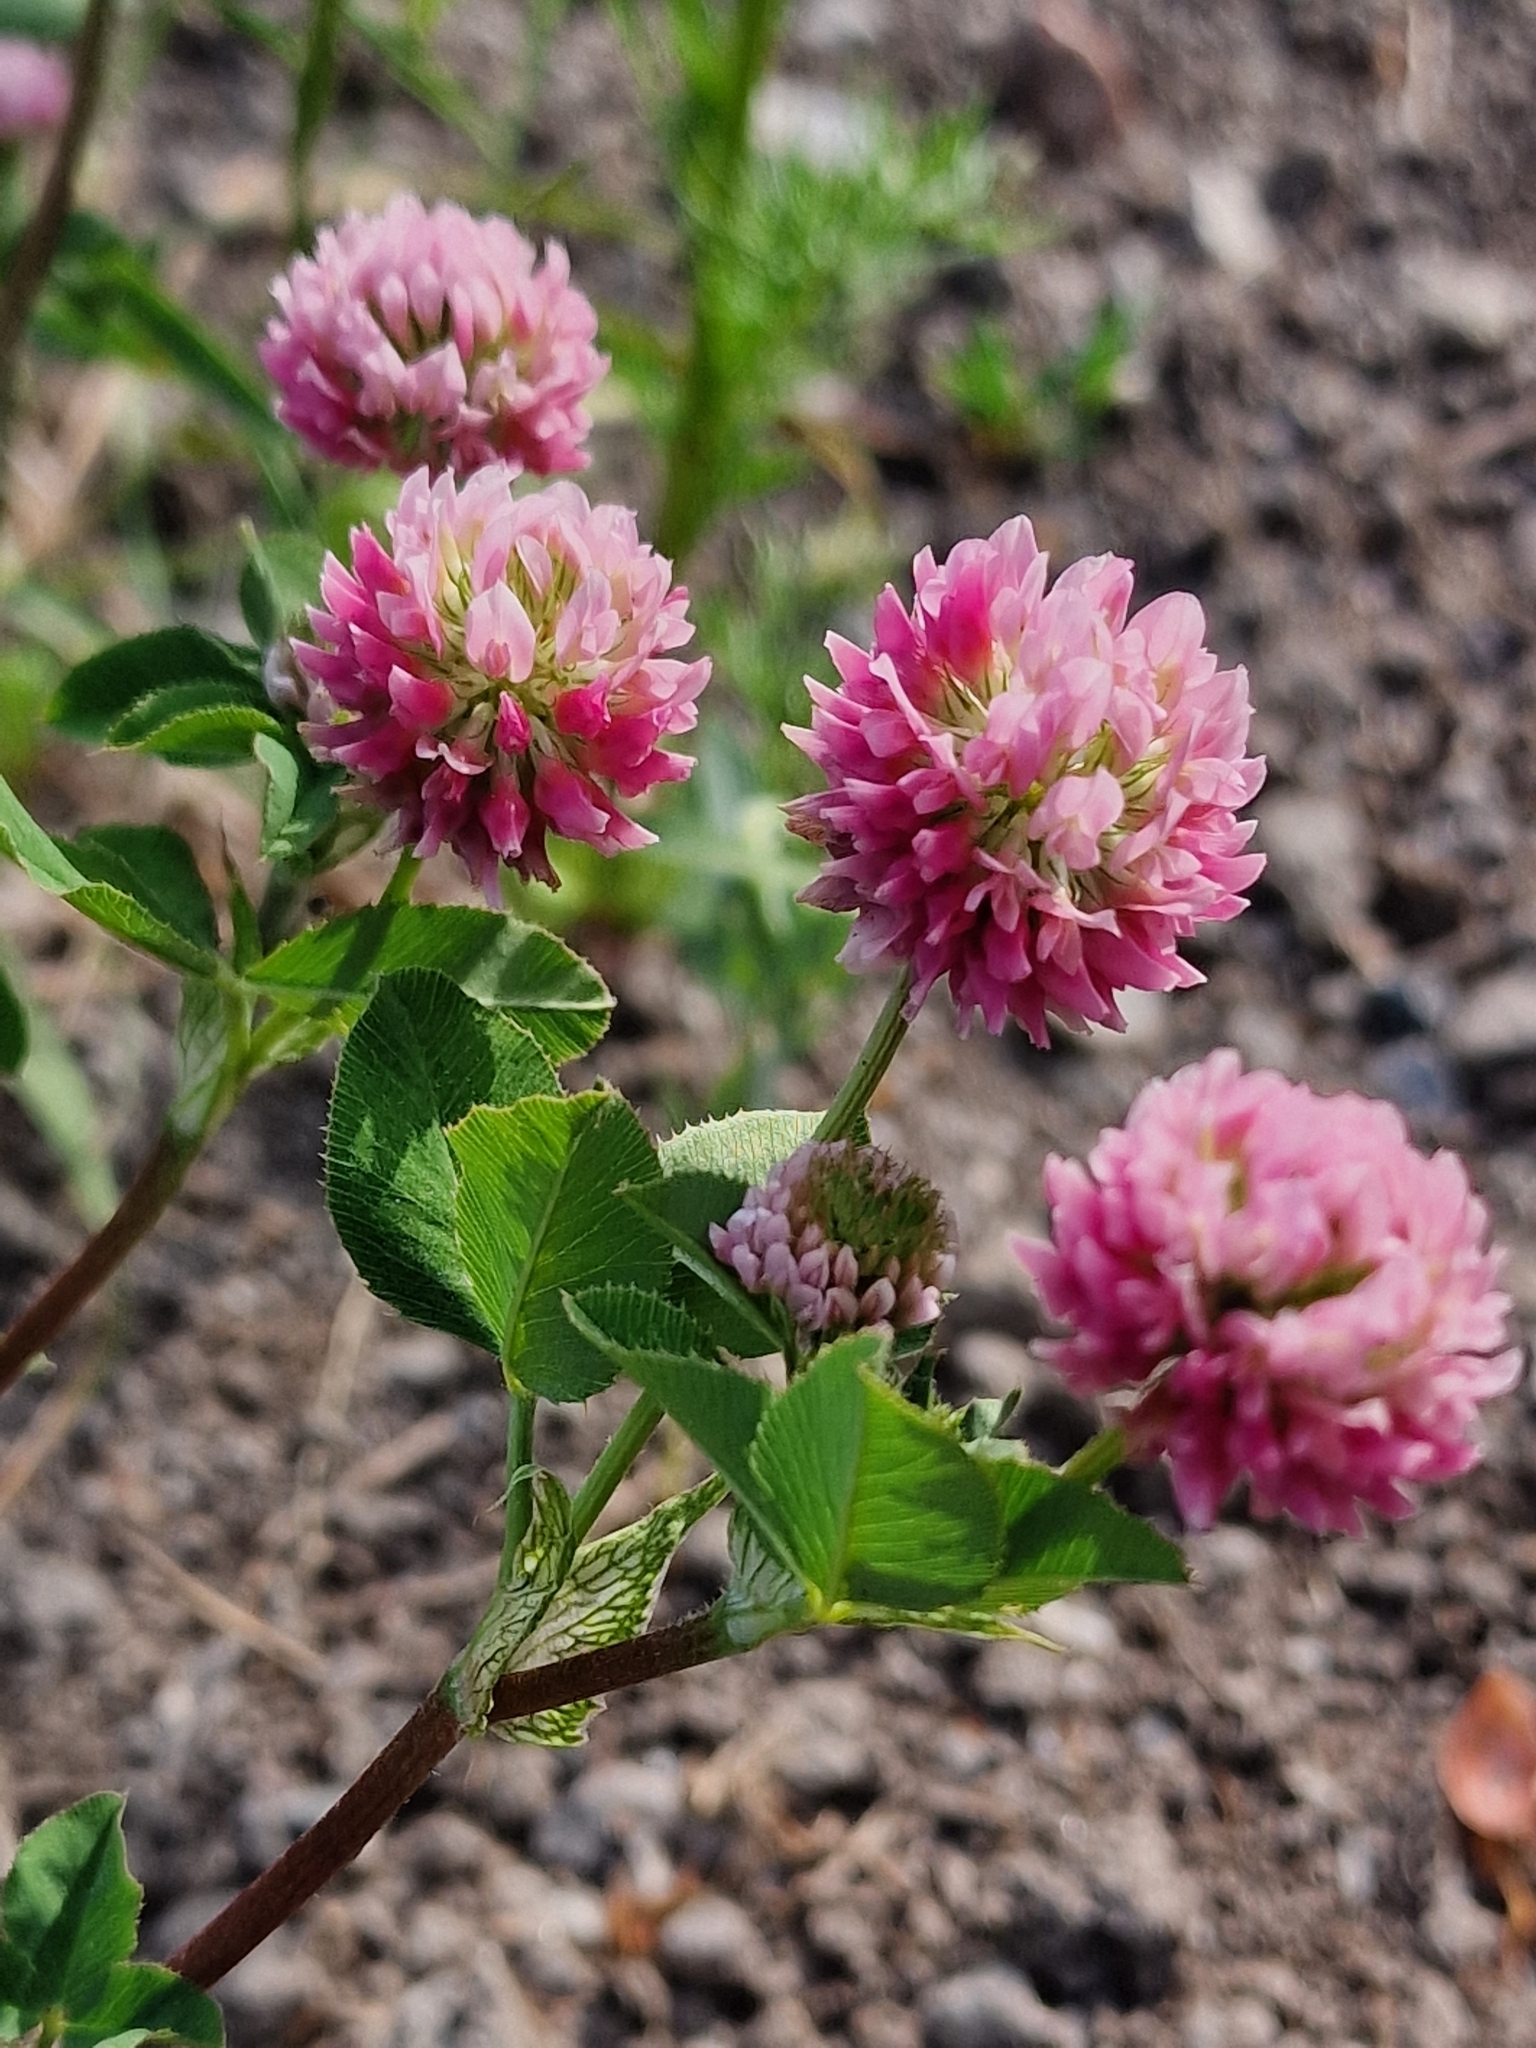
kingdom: Plantae
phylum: Tracheophyta
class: Magnoliopsida
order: Fabales
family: Fabaceae
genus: Trifolium
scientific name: Trifolium hybridum
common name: Alsike clover
